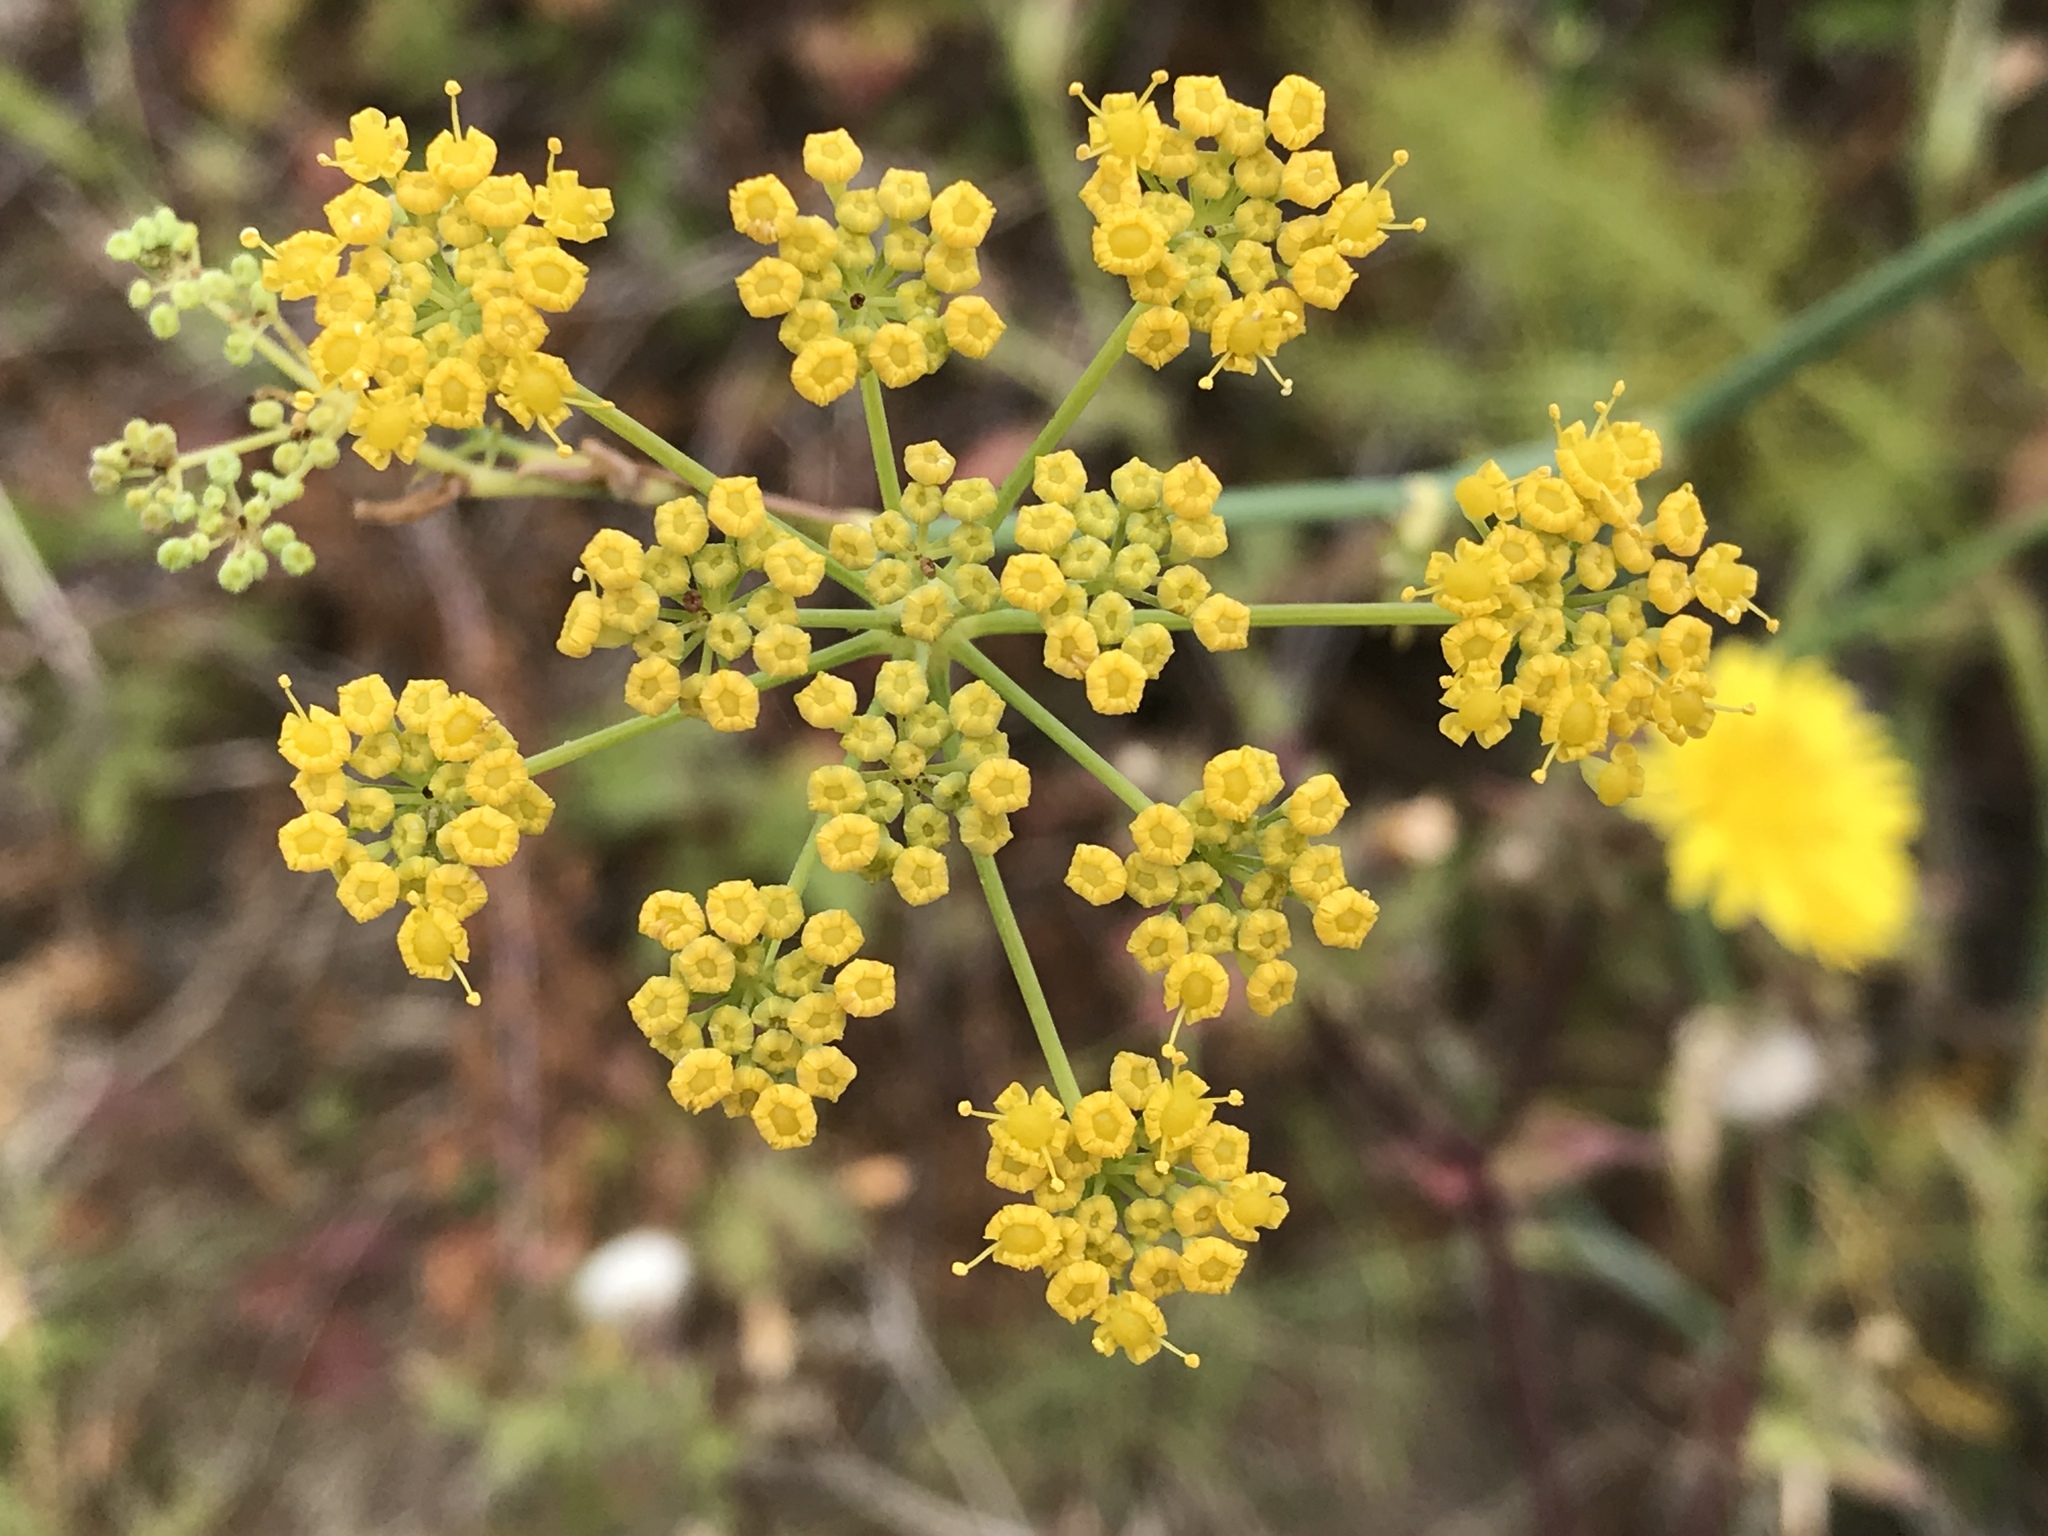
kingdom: Plantae
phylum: Tracheophyta
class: Magnoliopsida
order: Apiales
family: Apiaceae
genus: Foeniculum
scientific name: Foeniculum vulgare
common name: Fennel
